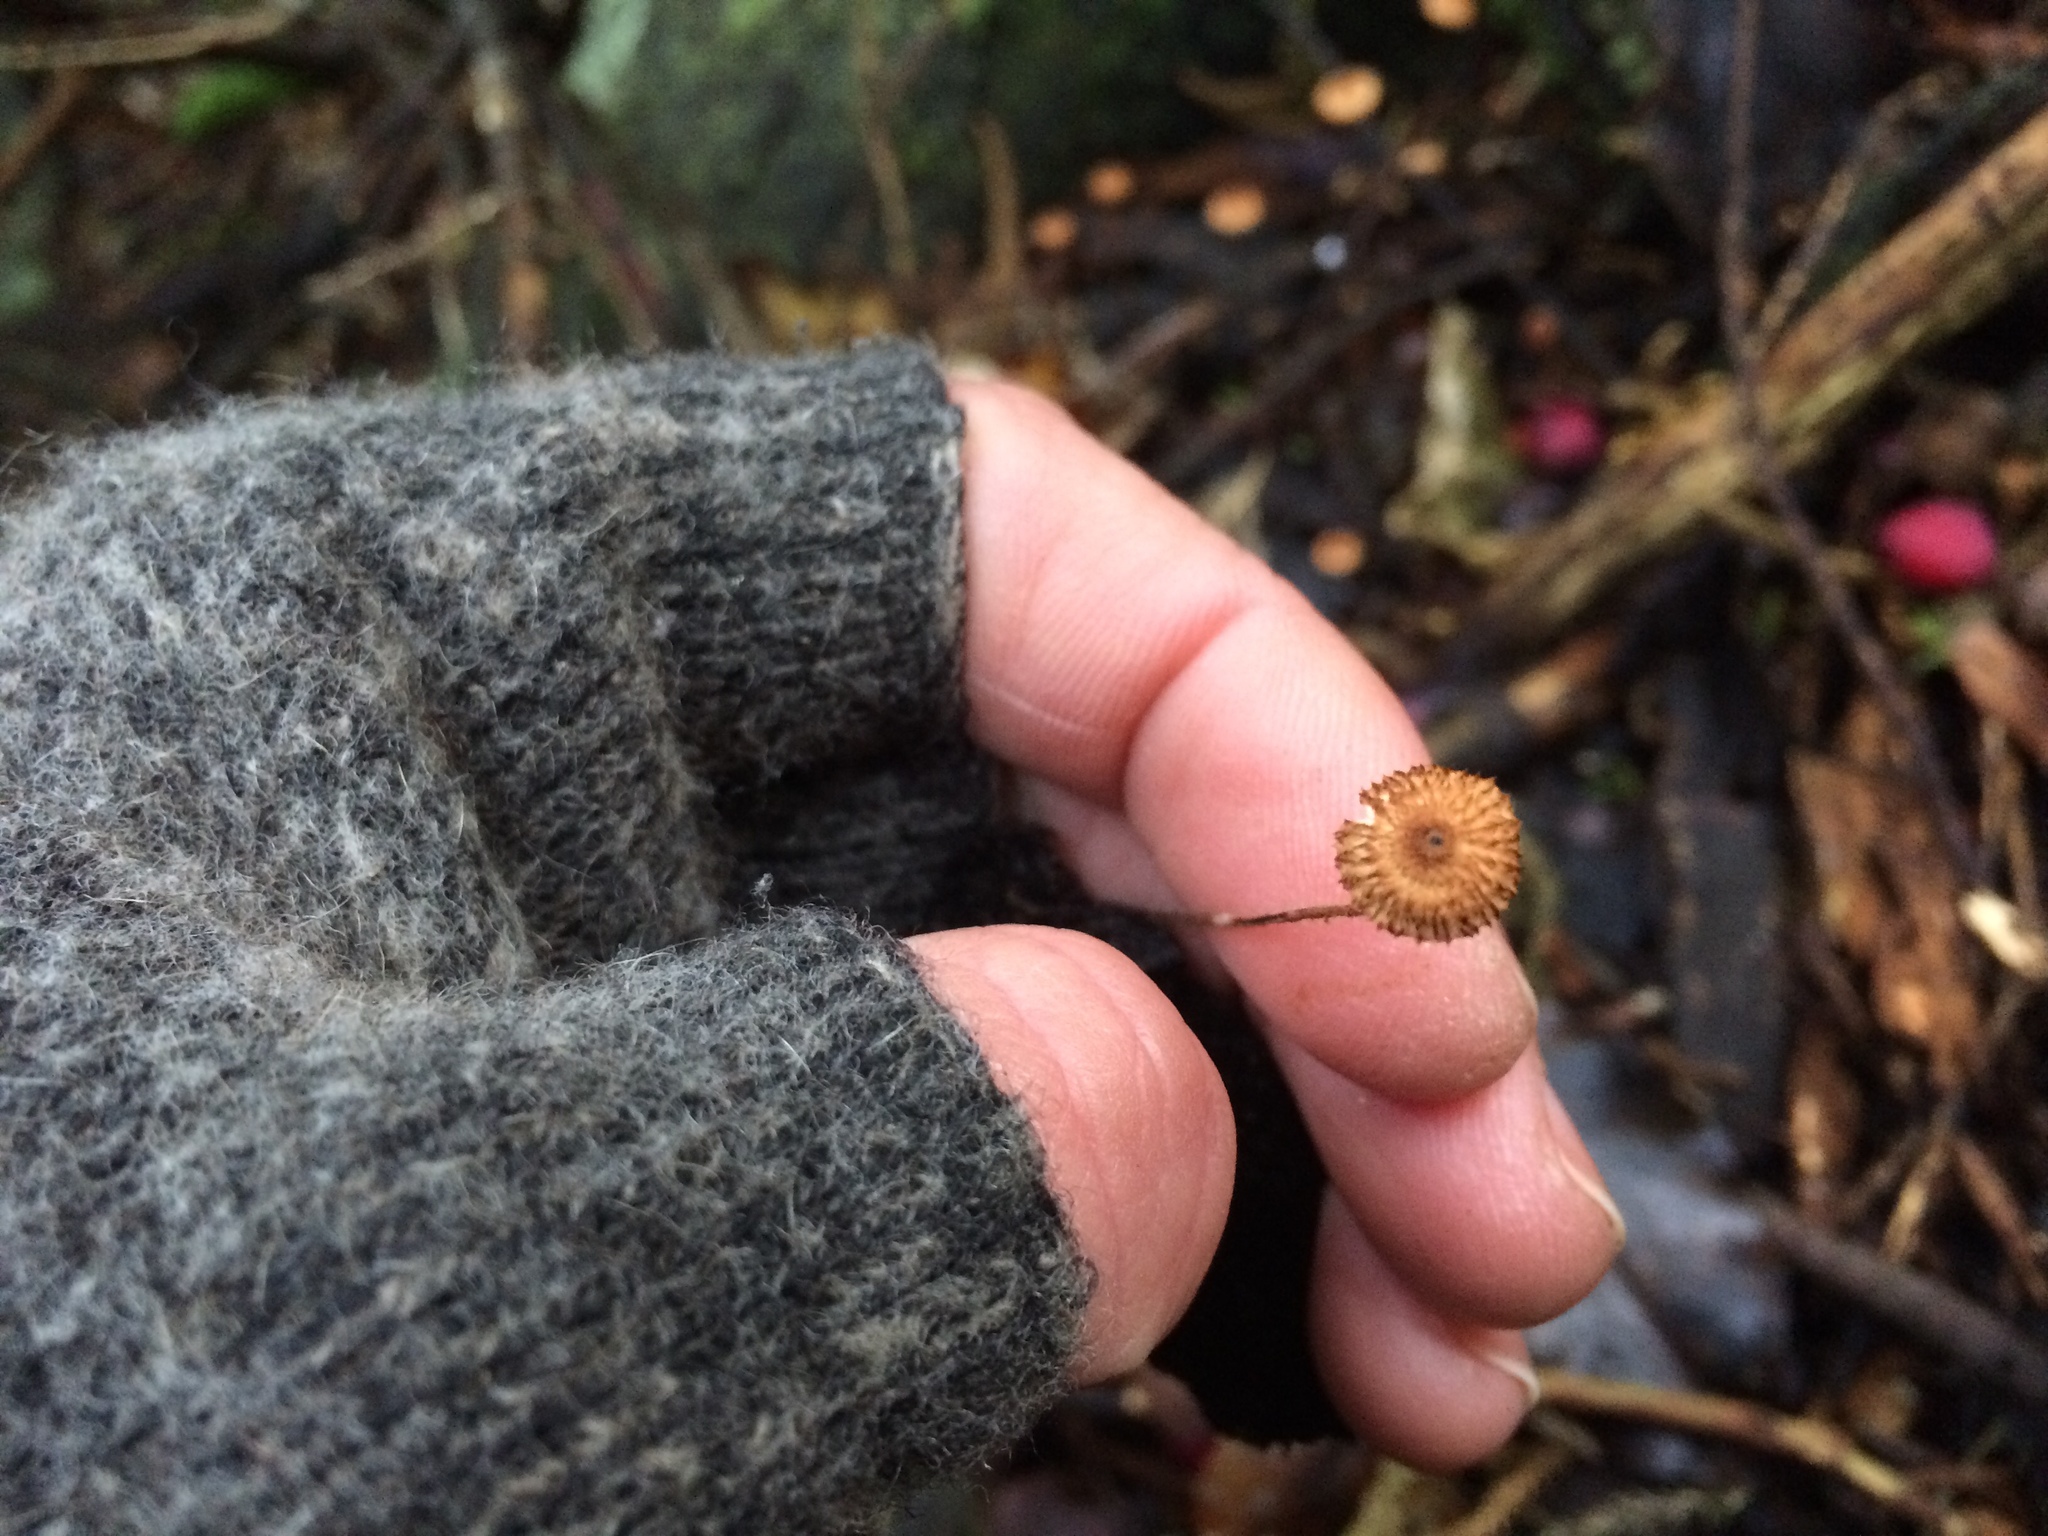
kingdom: Fungi
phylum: Basidiomycota
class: Agaricomycetes
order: Agaricales
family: Marasmiaceae
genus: Crinipellis
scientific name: Crinipellis procera
